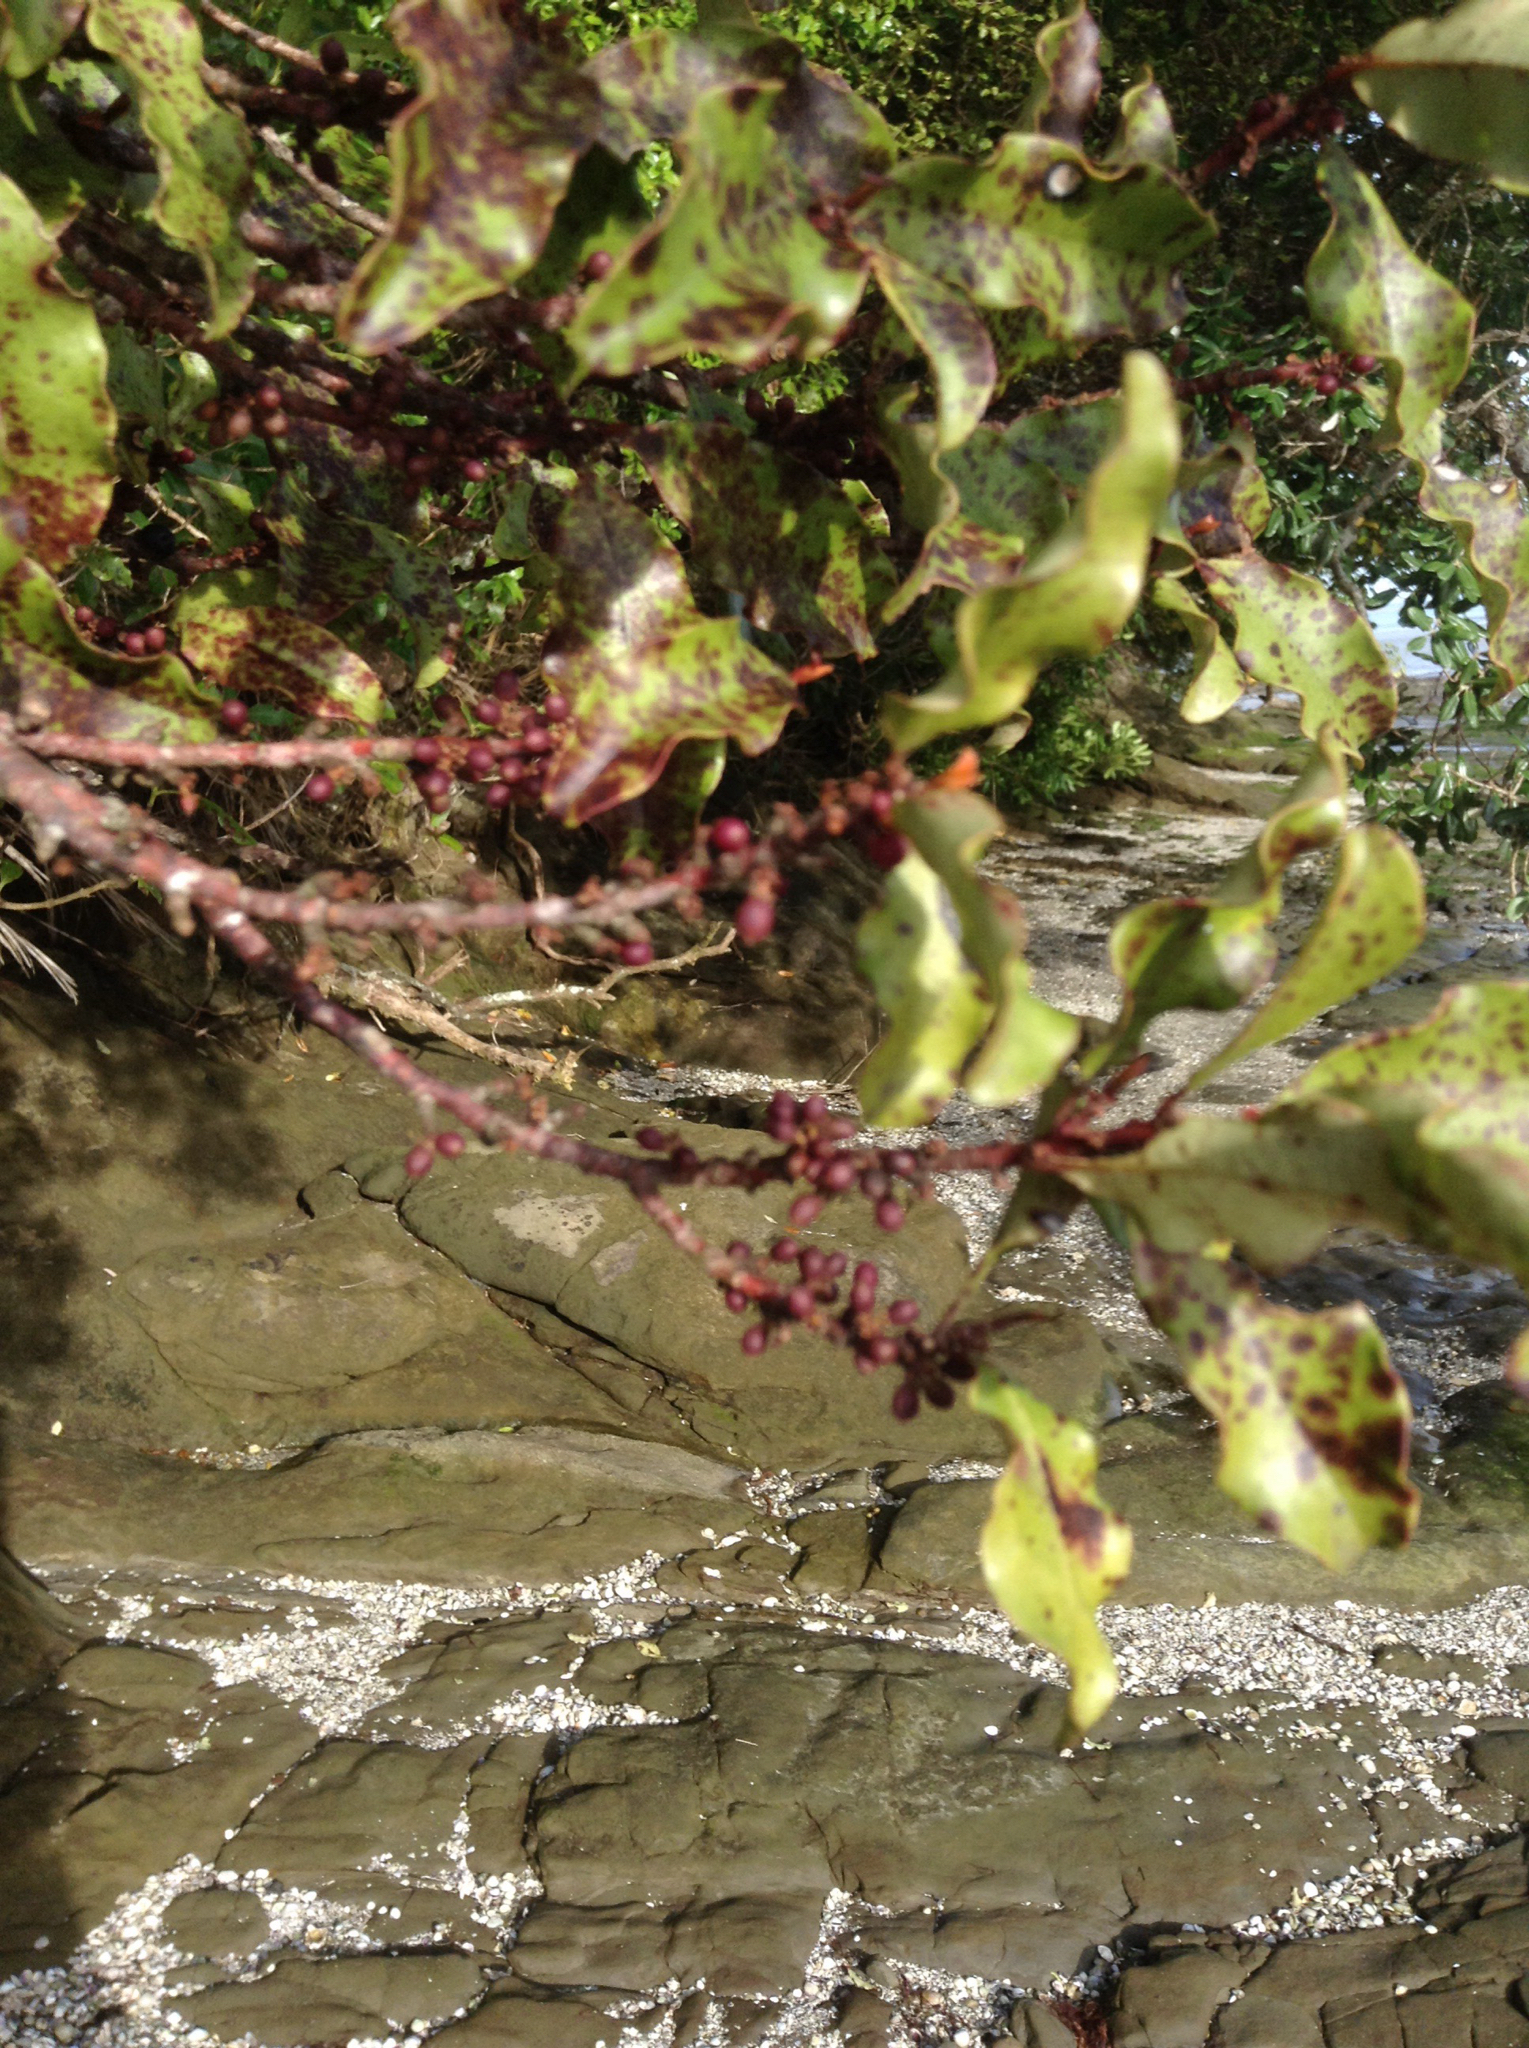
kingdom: Plantae
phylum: Tracheophyta
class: Magnoliopsida
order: Ericales
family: Primulaceae
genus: Myrsine
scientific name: Myrsine australis
